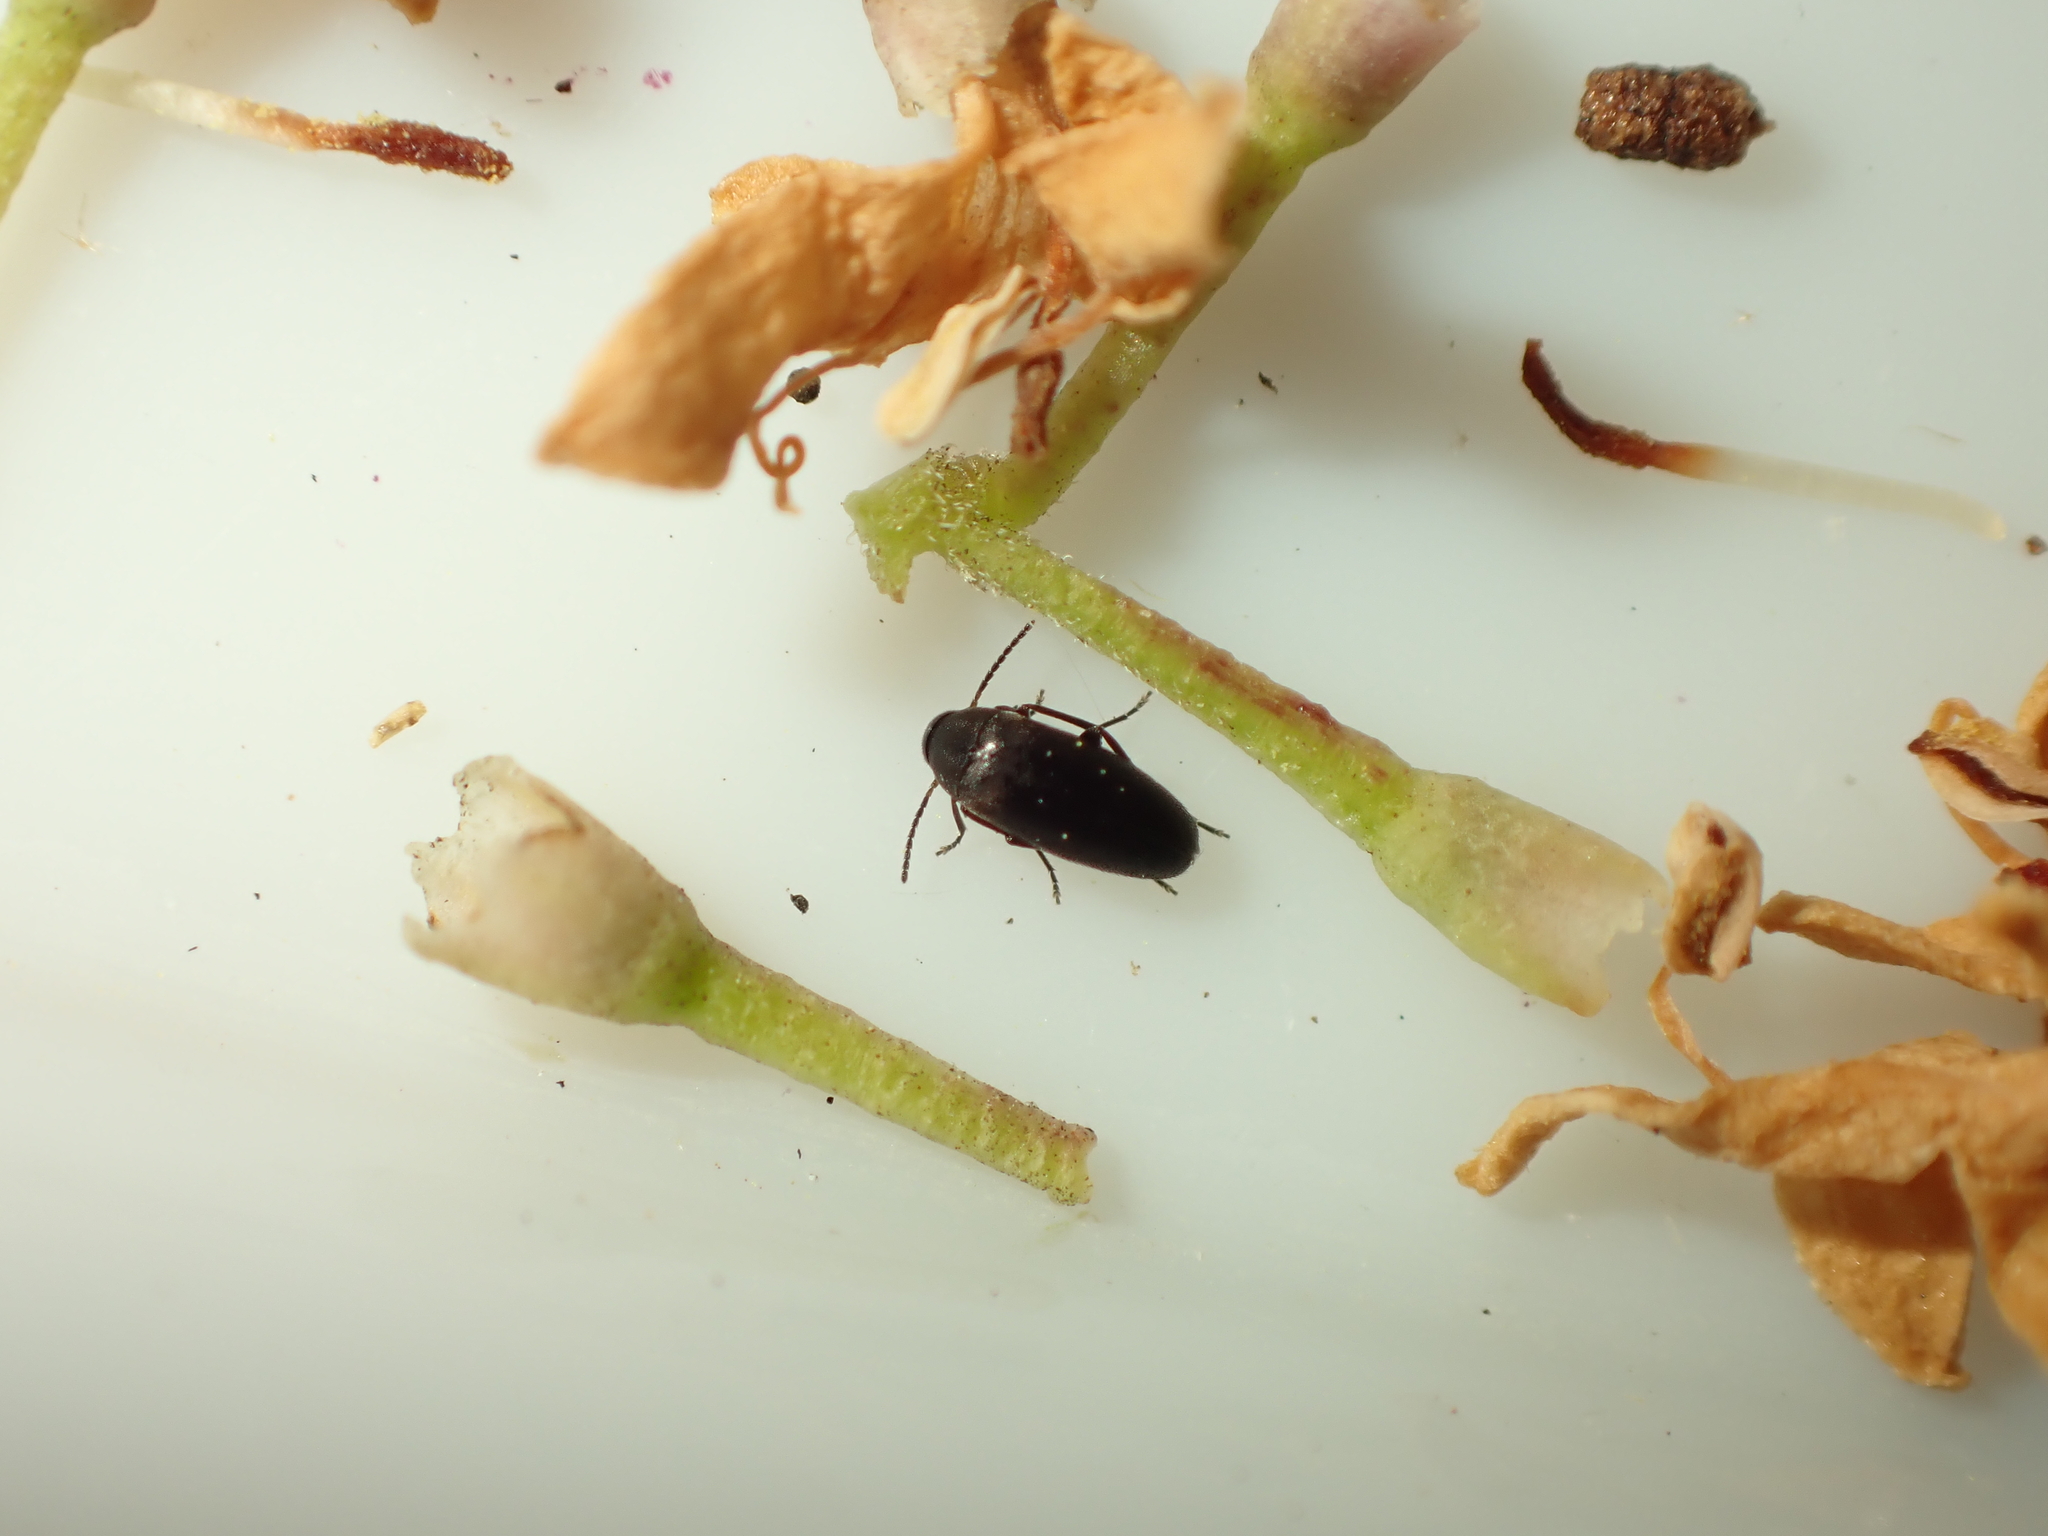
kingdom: Animalia
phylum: Arthropoda
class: Insecta
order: Coleoptera
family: Scraptiidae
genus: Nothotelus
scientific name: Nothotelus
